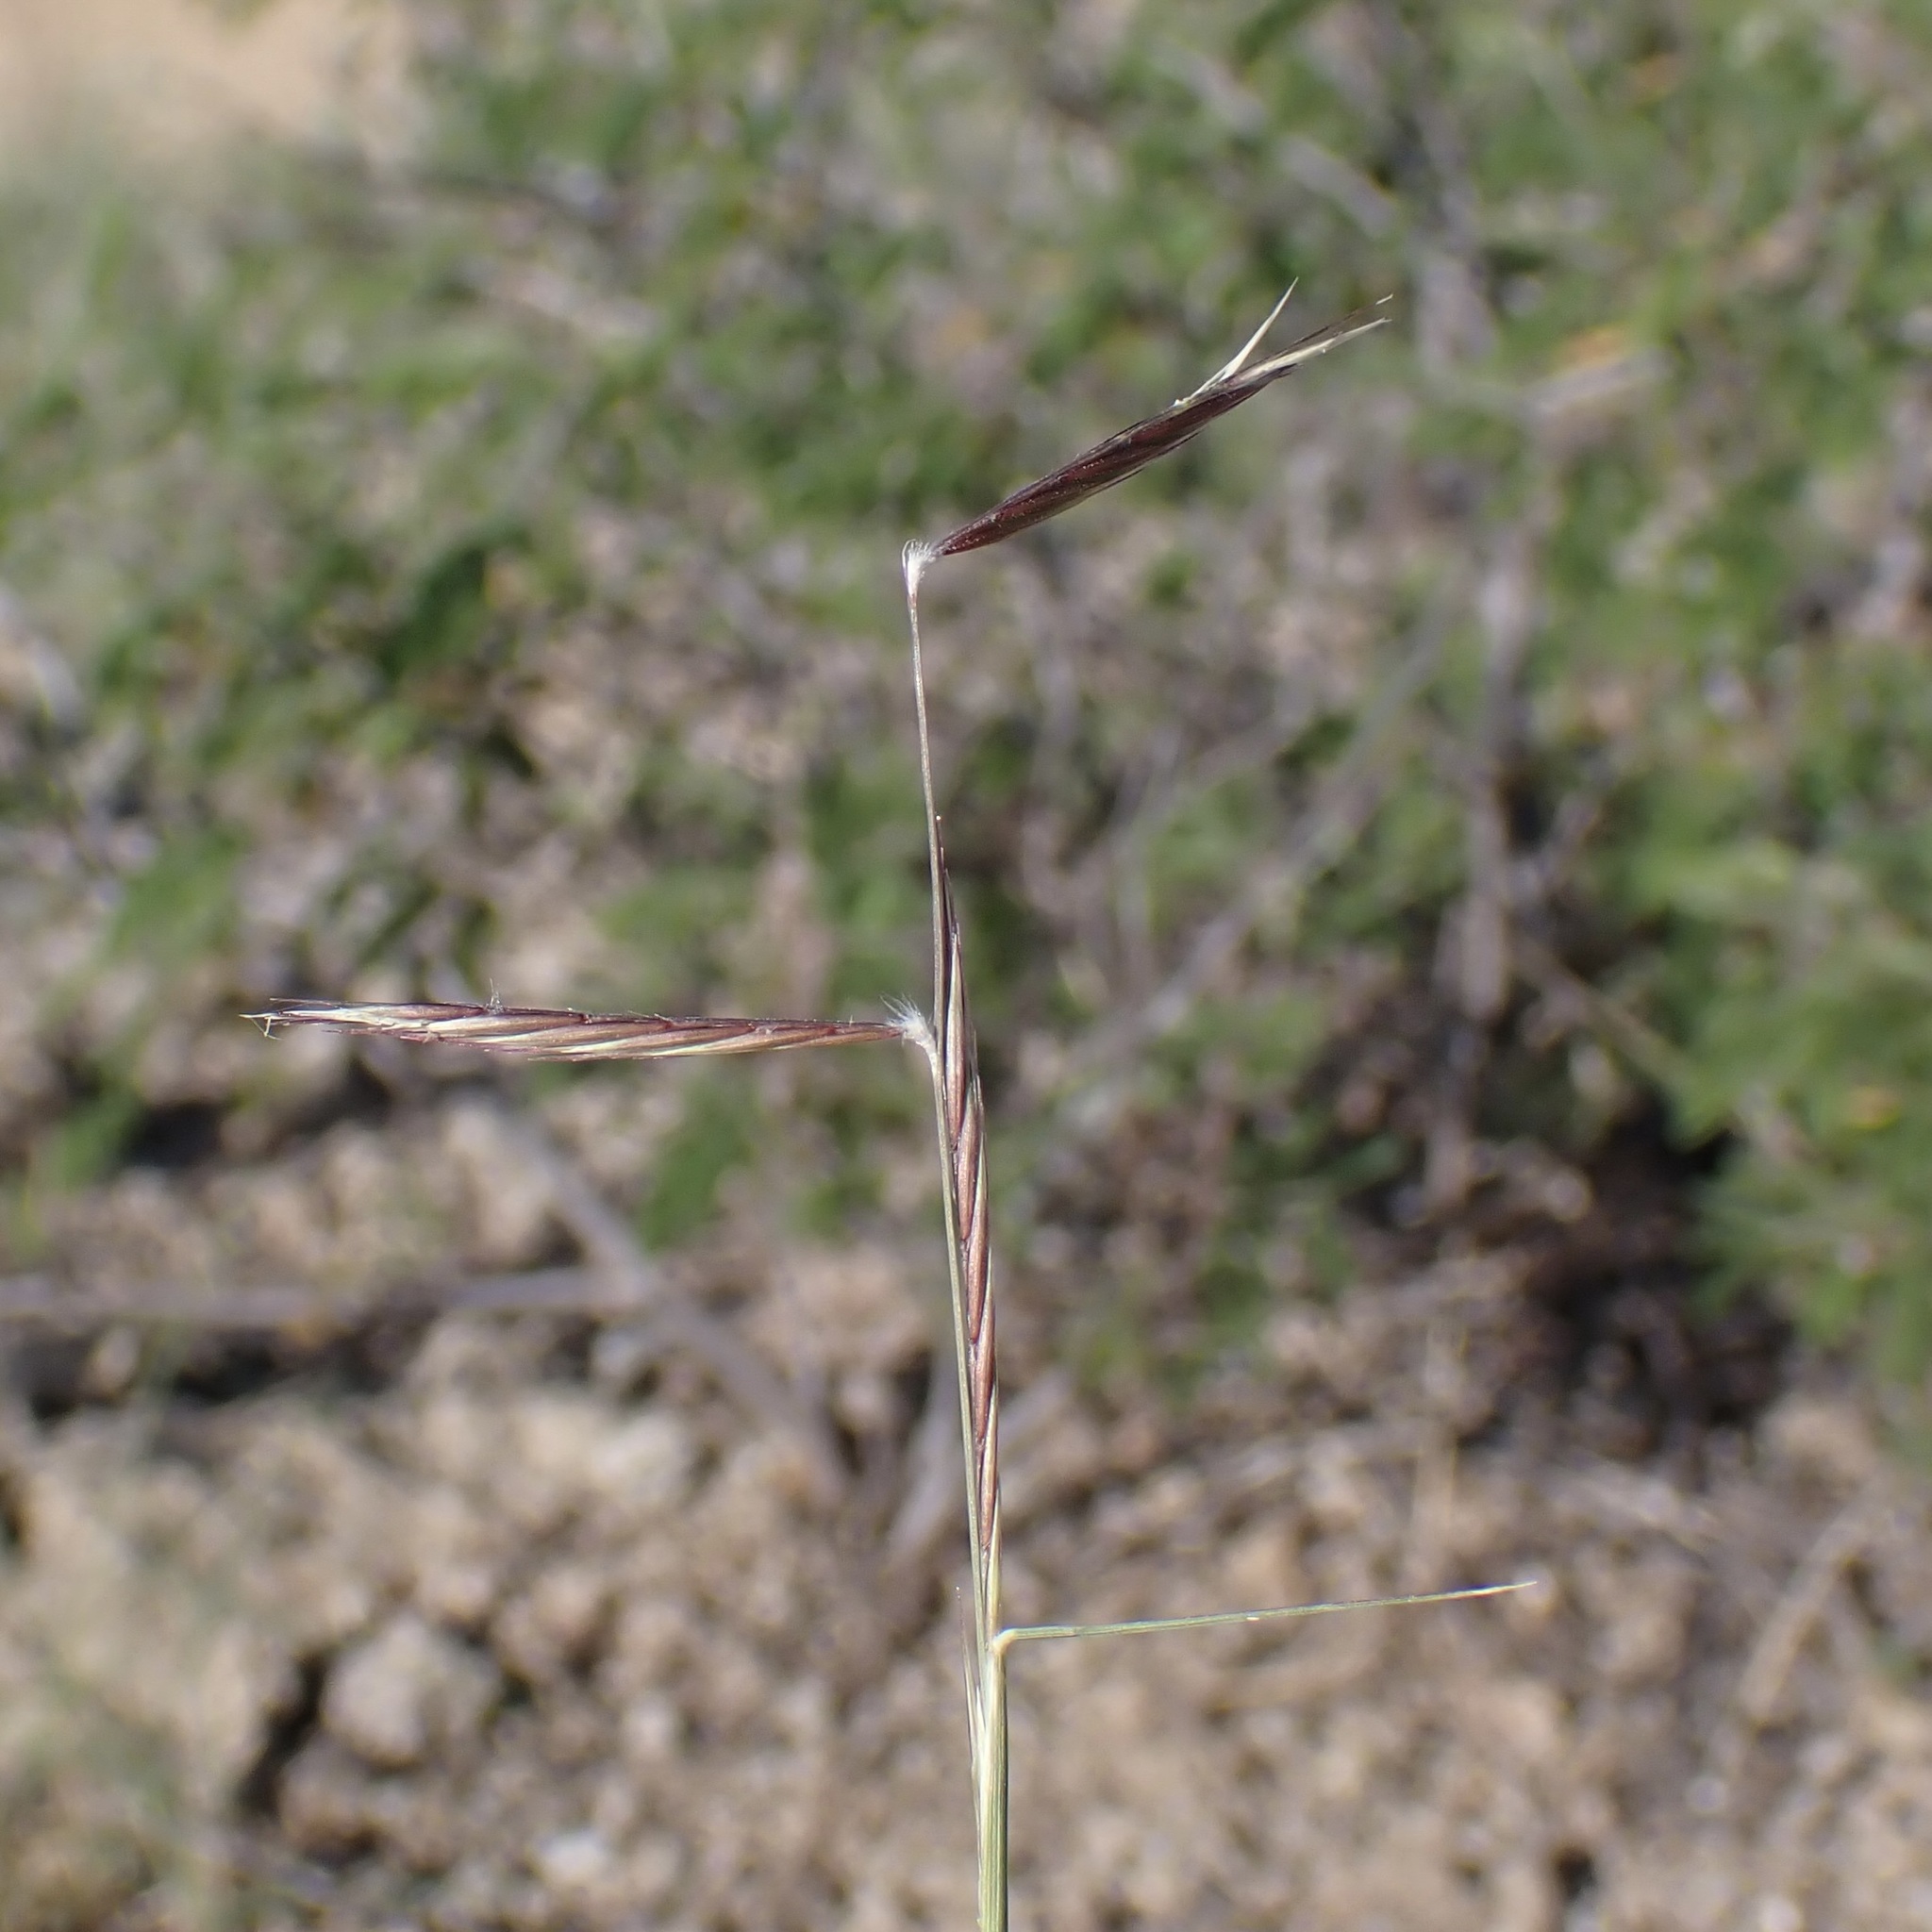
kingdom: Plantae
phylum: Tracheophyta
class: Liliopsida
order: Poales
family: Poaceae
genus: Bouteloua
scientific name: Bouteloua eriopoda
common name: Woolly foot grama
